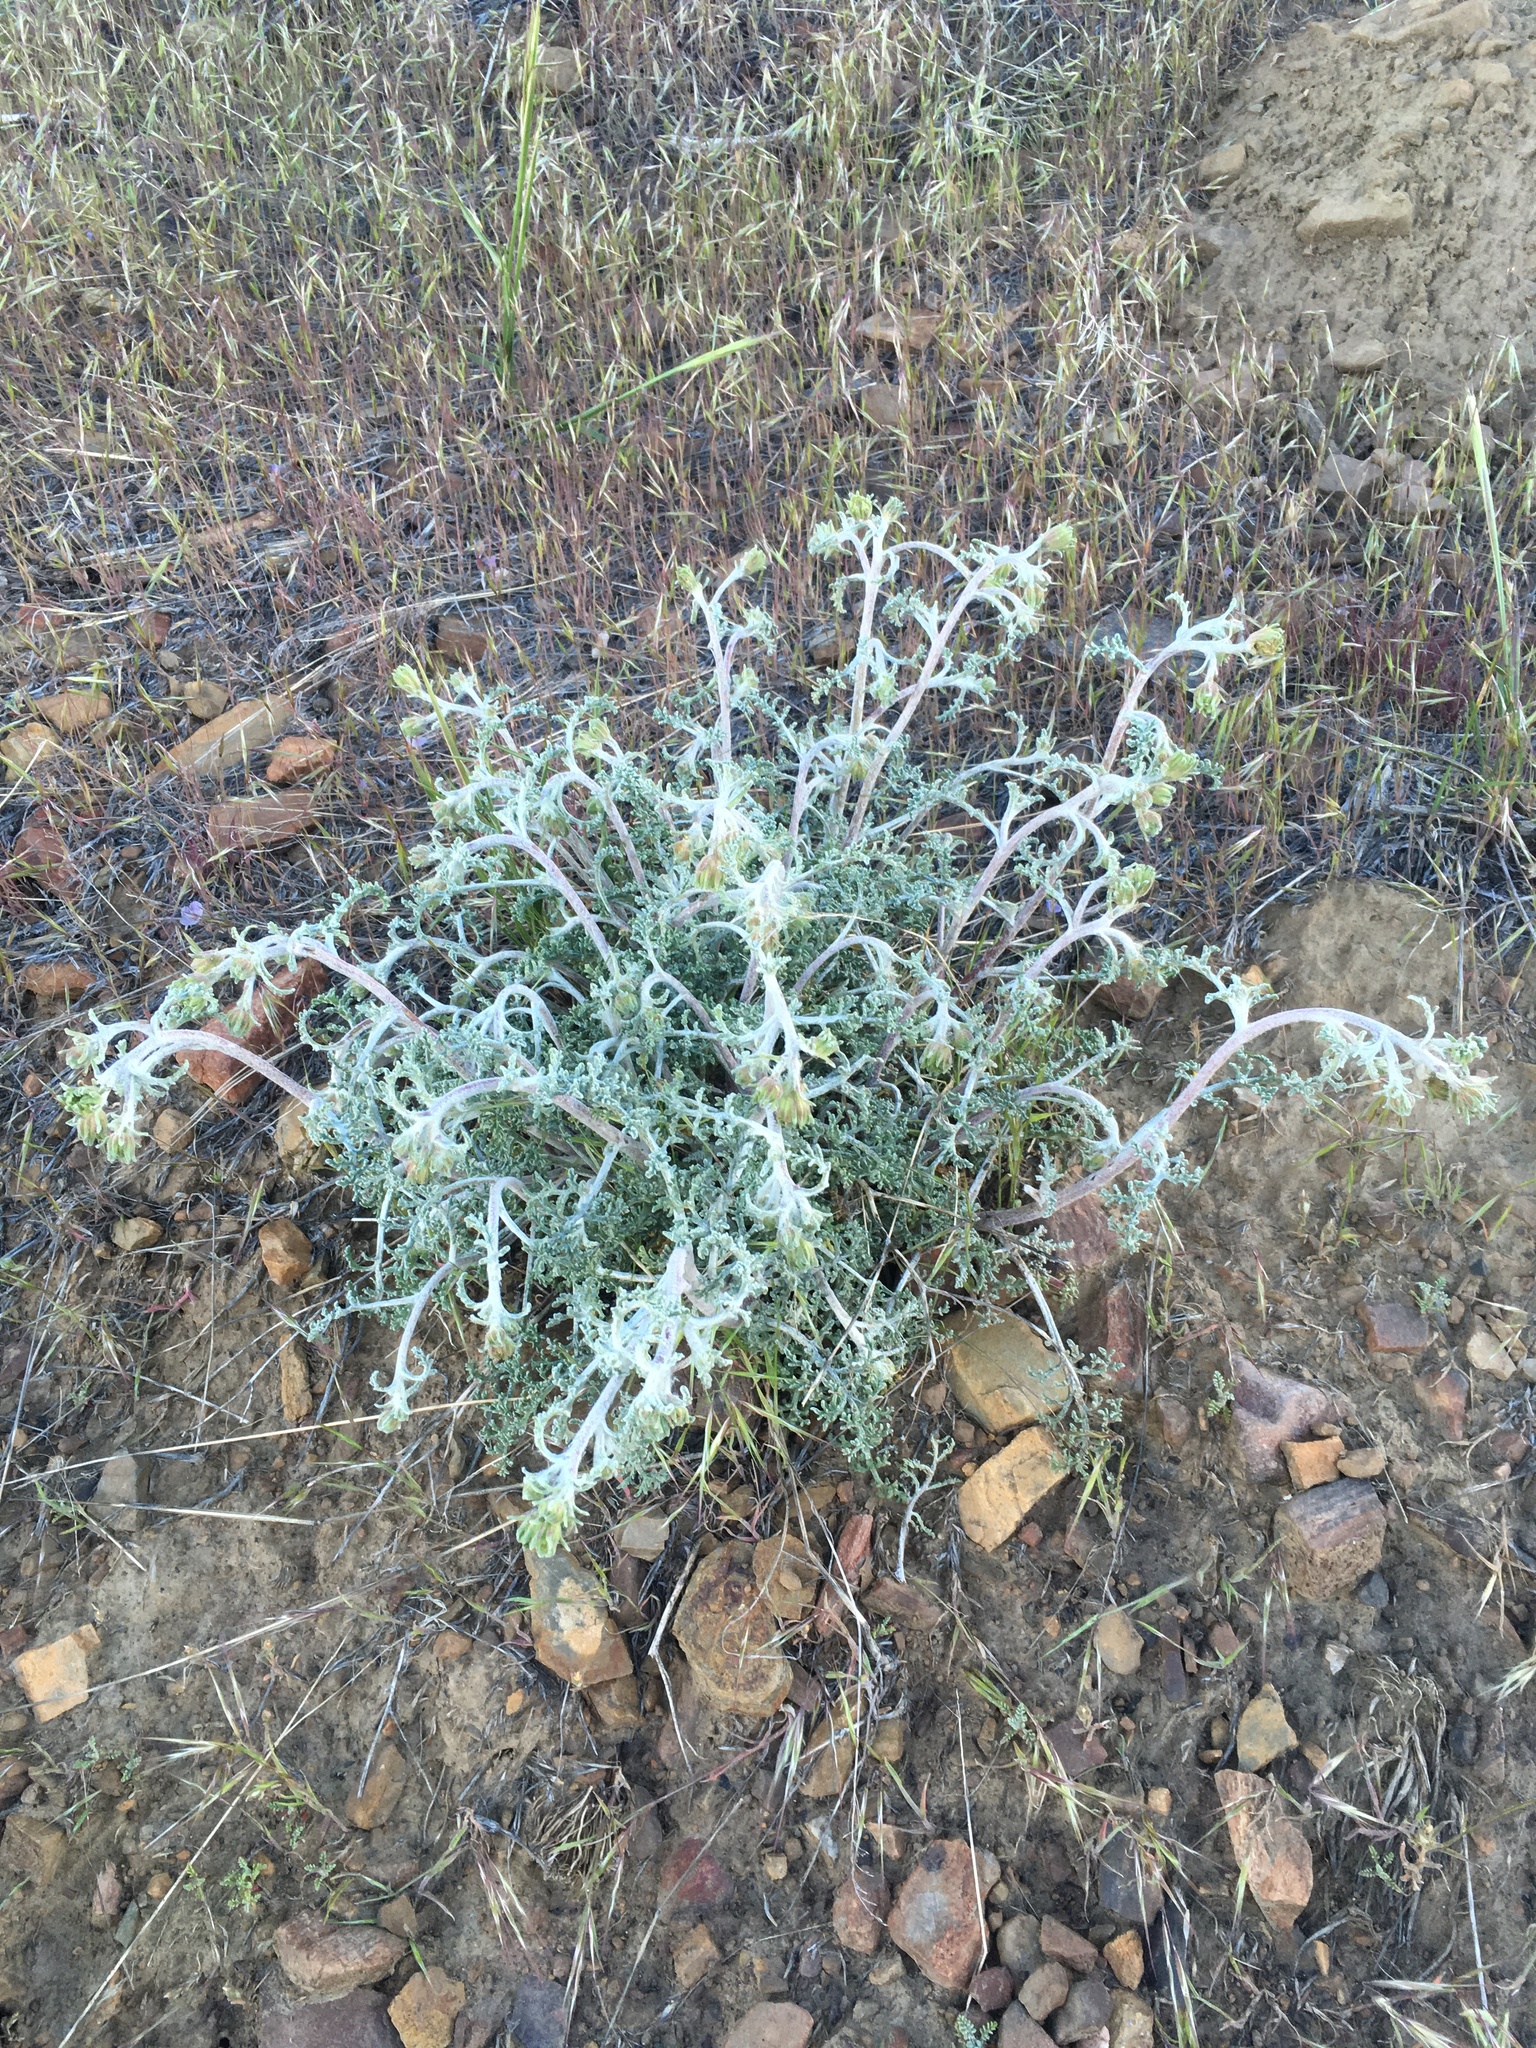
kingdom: Plantae
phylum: Tracheophyta
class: Magnoliopsida
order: Asterales
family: Asteraceae
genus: Chaenactis
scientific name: Chaenactis douglasii
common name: Hoary pincushion
